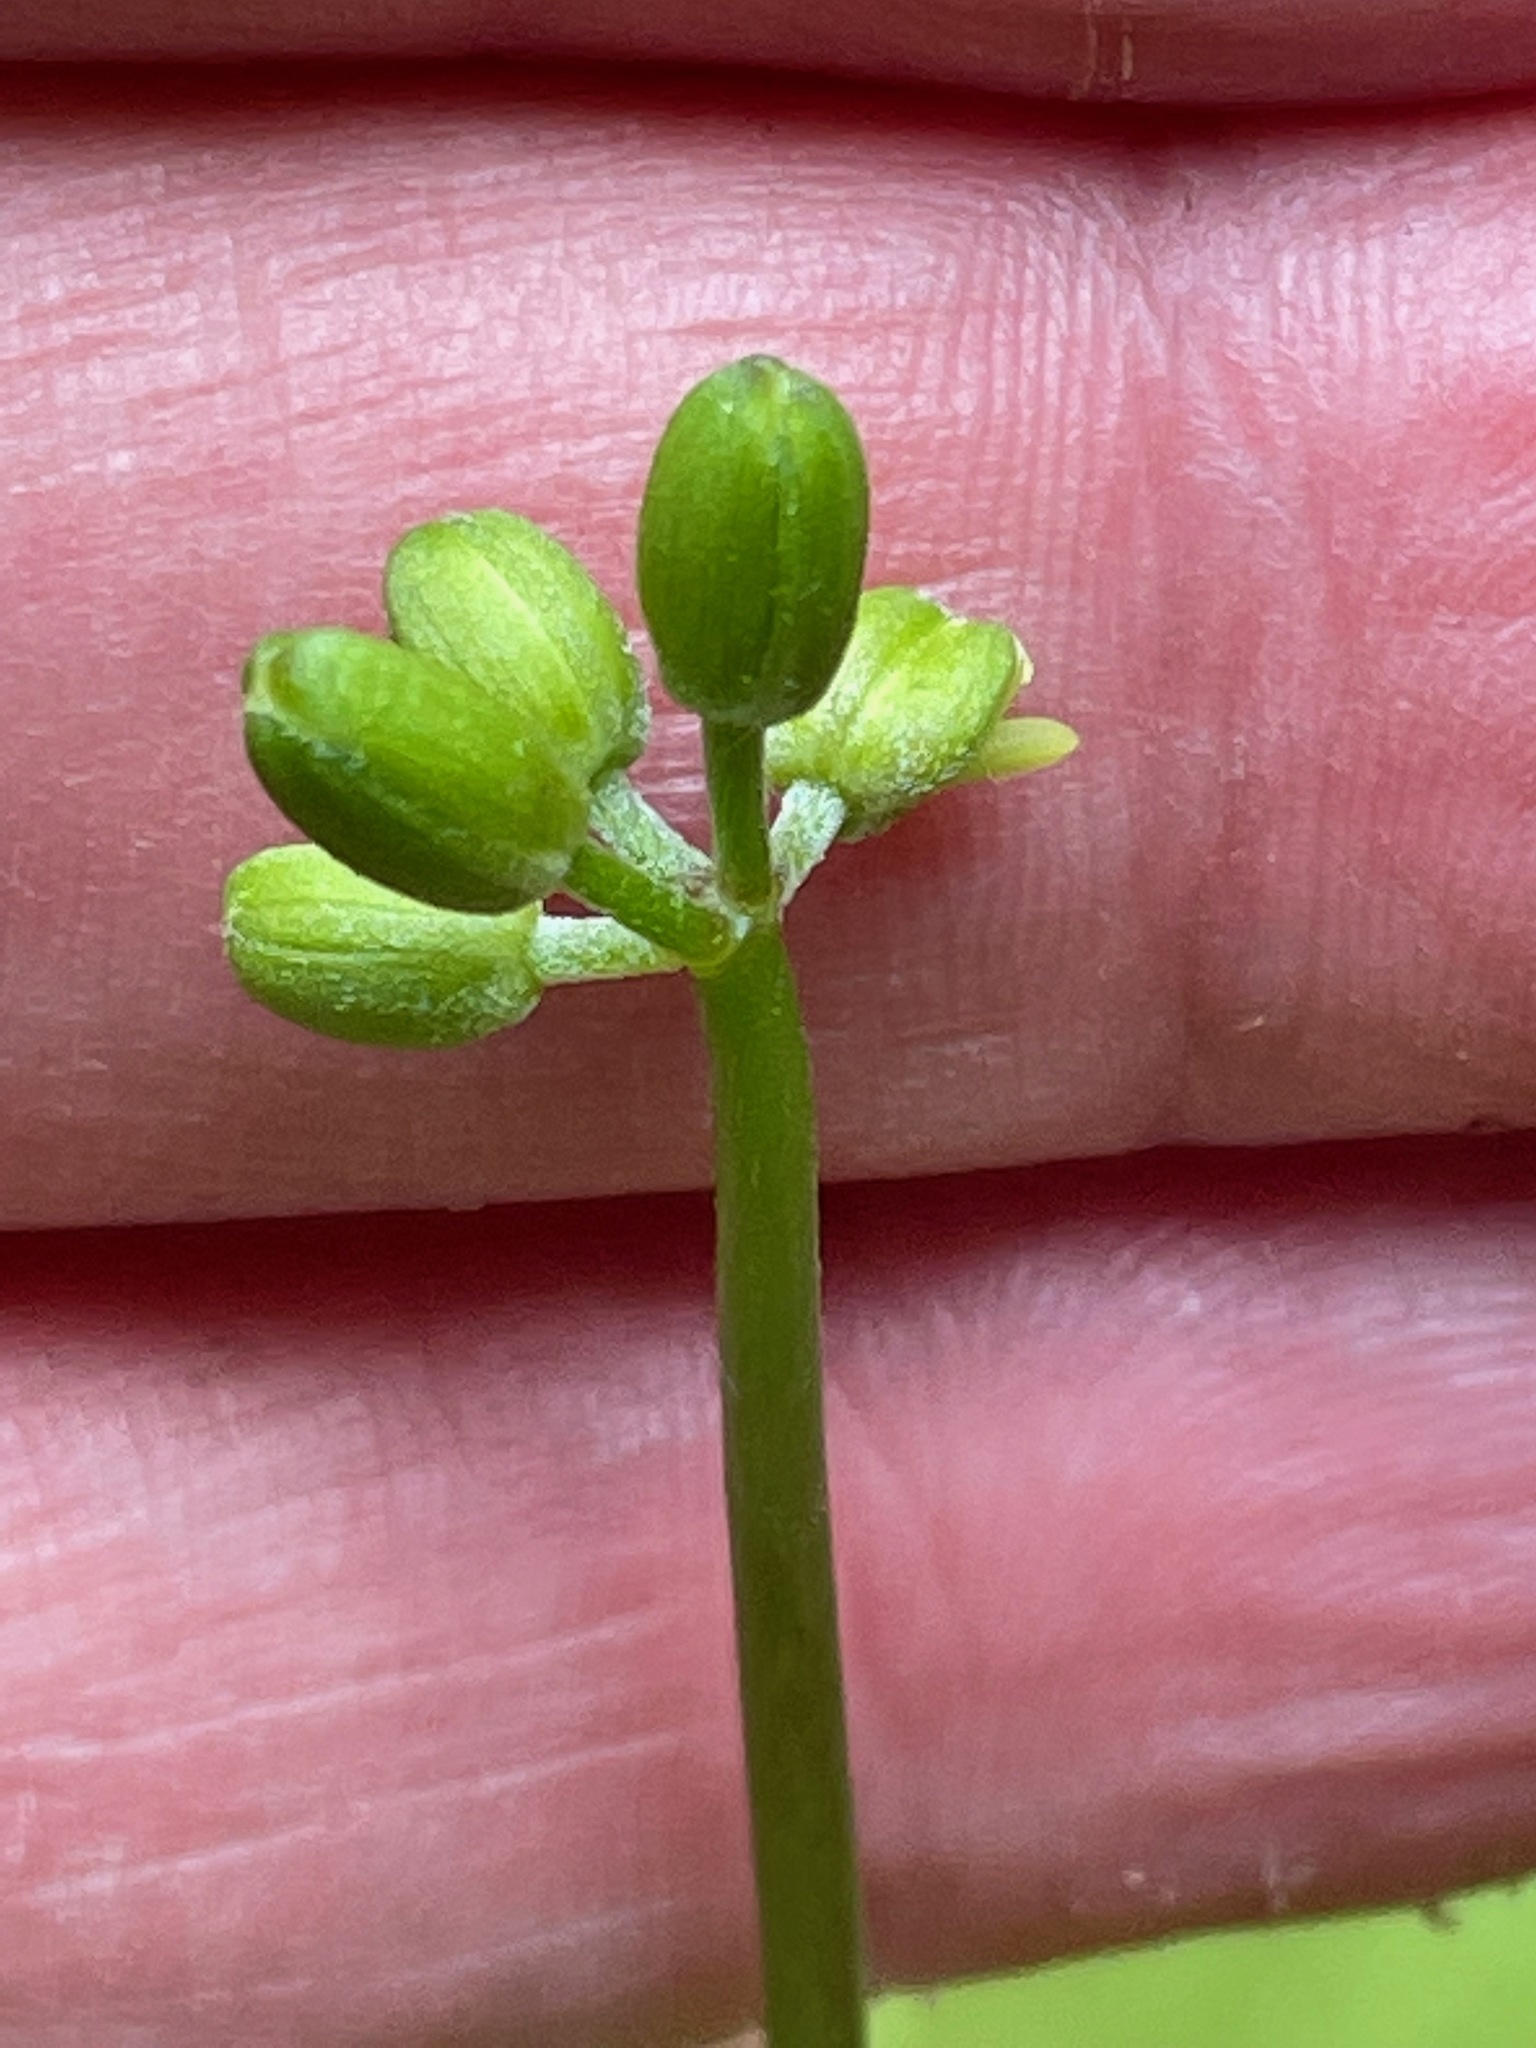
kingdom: Plantae
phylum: Tracheophyta
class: Liliopsida
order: Liliales
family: Liliaceae
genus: Clintonia
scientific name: Clintonia borealis
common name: Yellow clintonia
